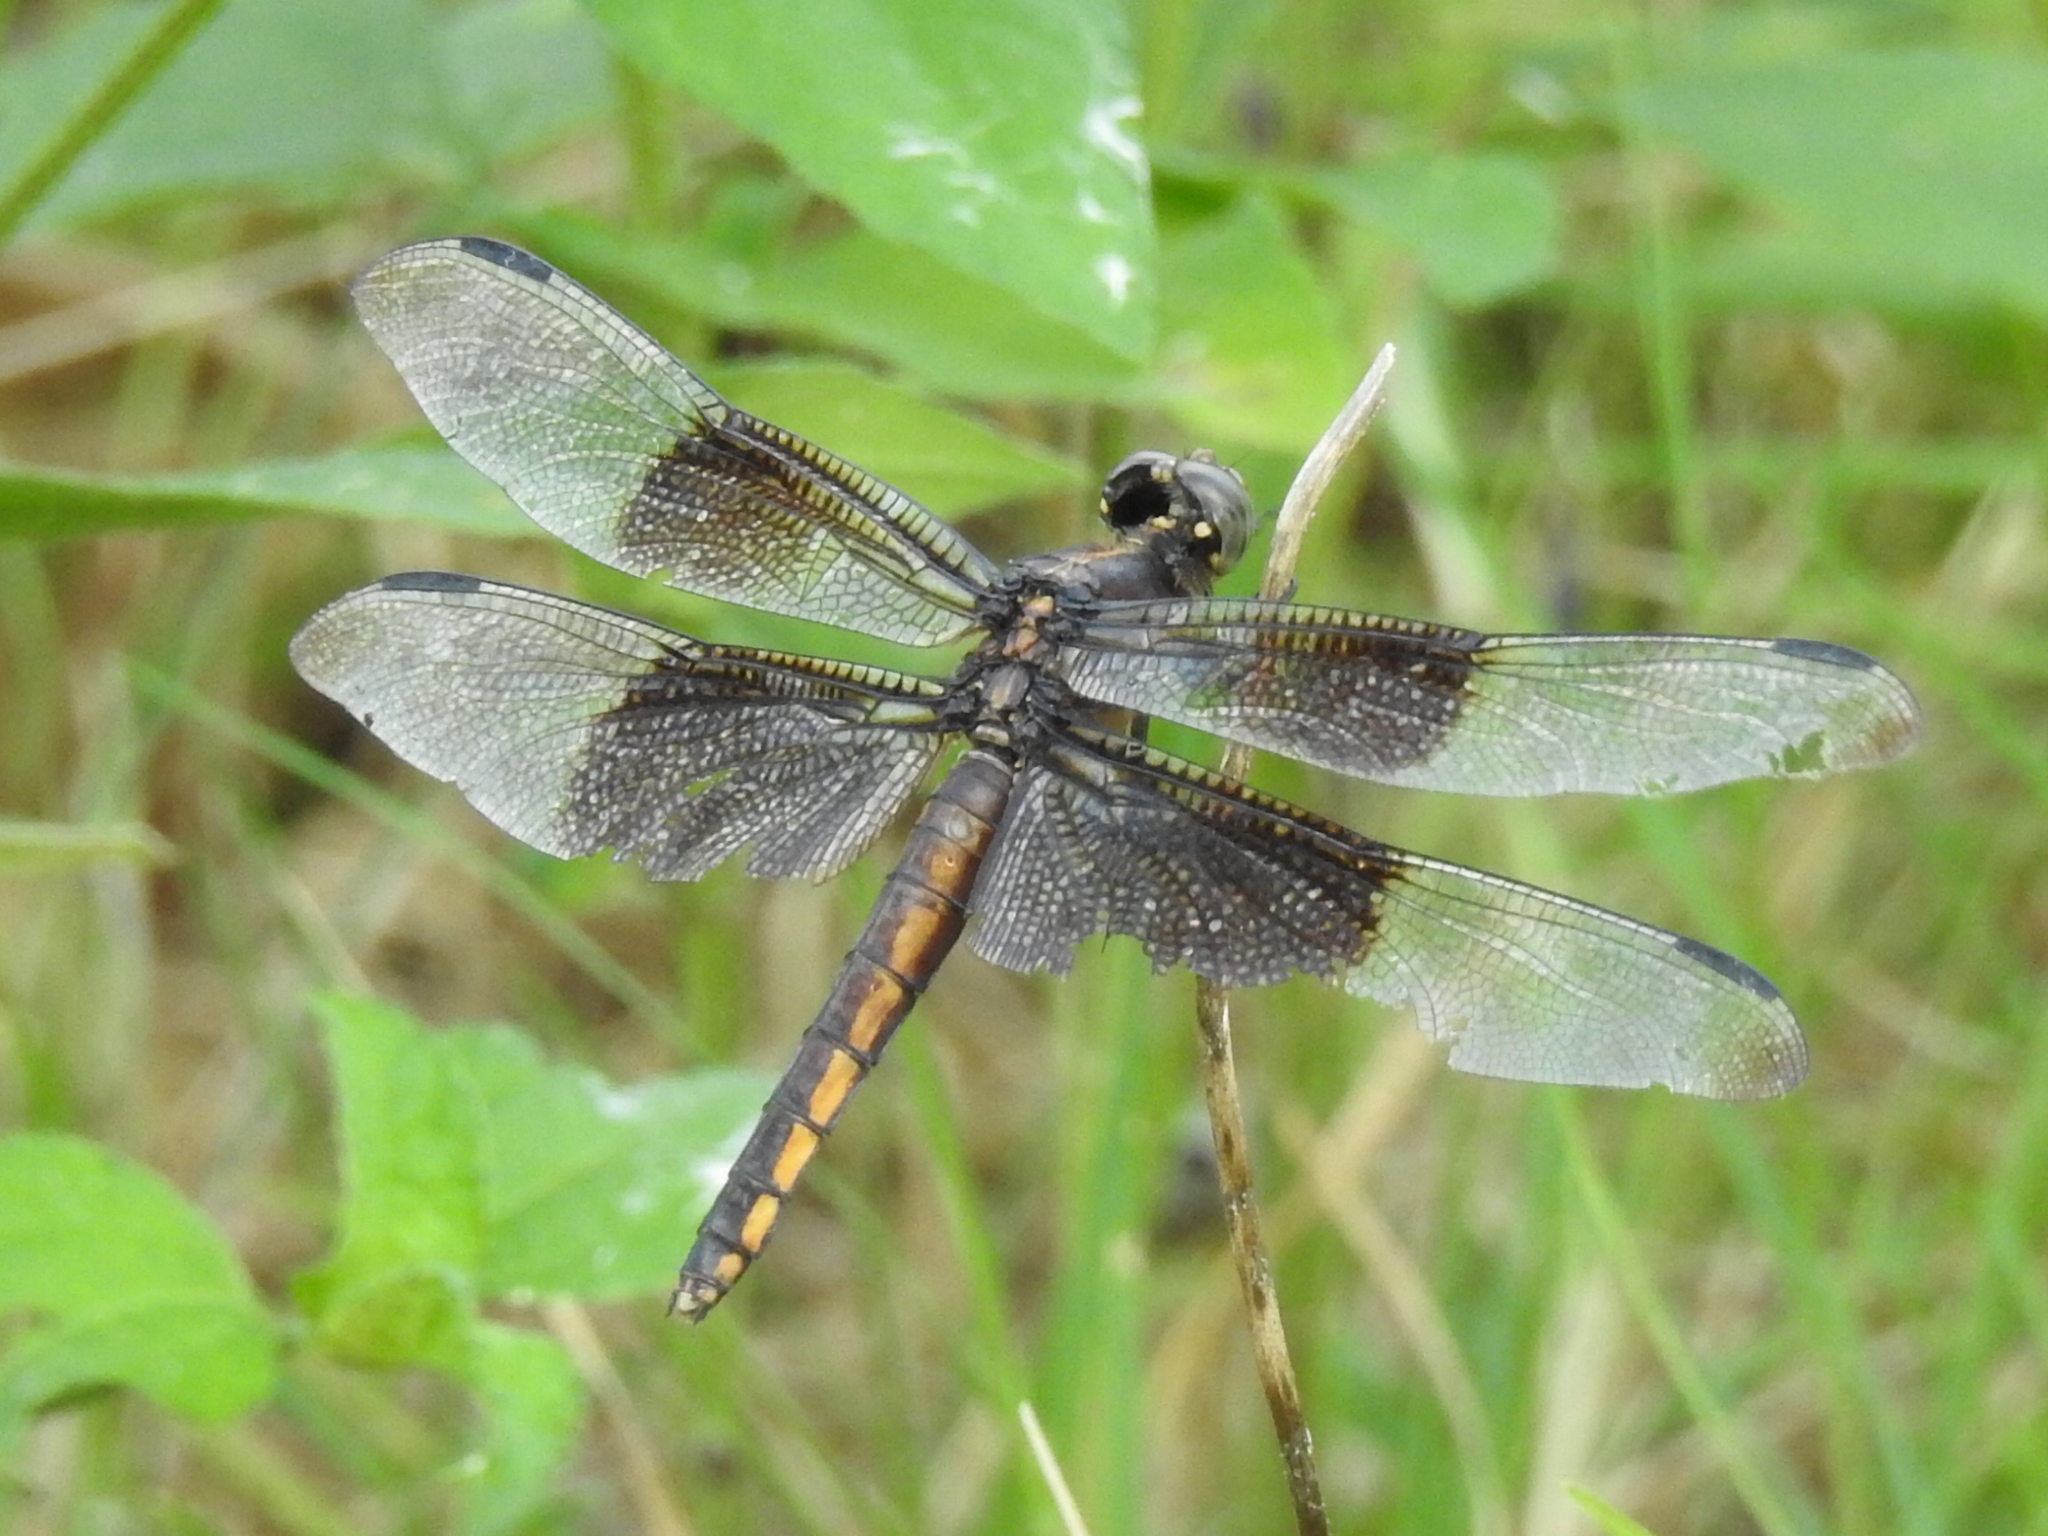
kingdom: Animalia
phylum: Arthropoda
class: Insecta
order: Odonata
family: Libellulidae
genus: Libellula
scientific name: Libellula luctuosa
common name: Widow skimmer
